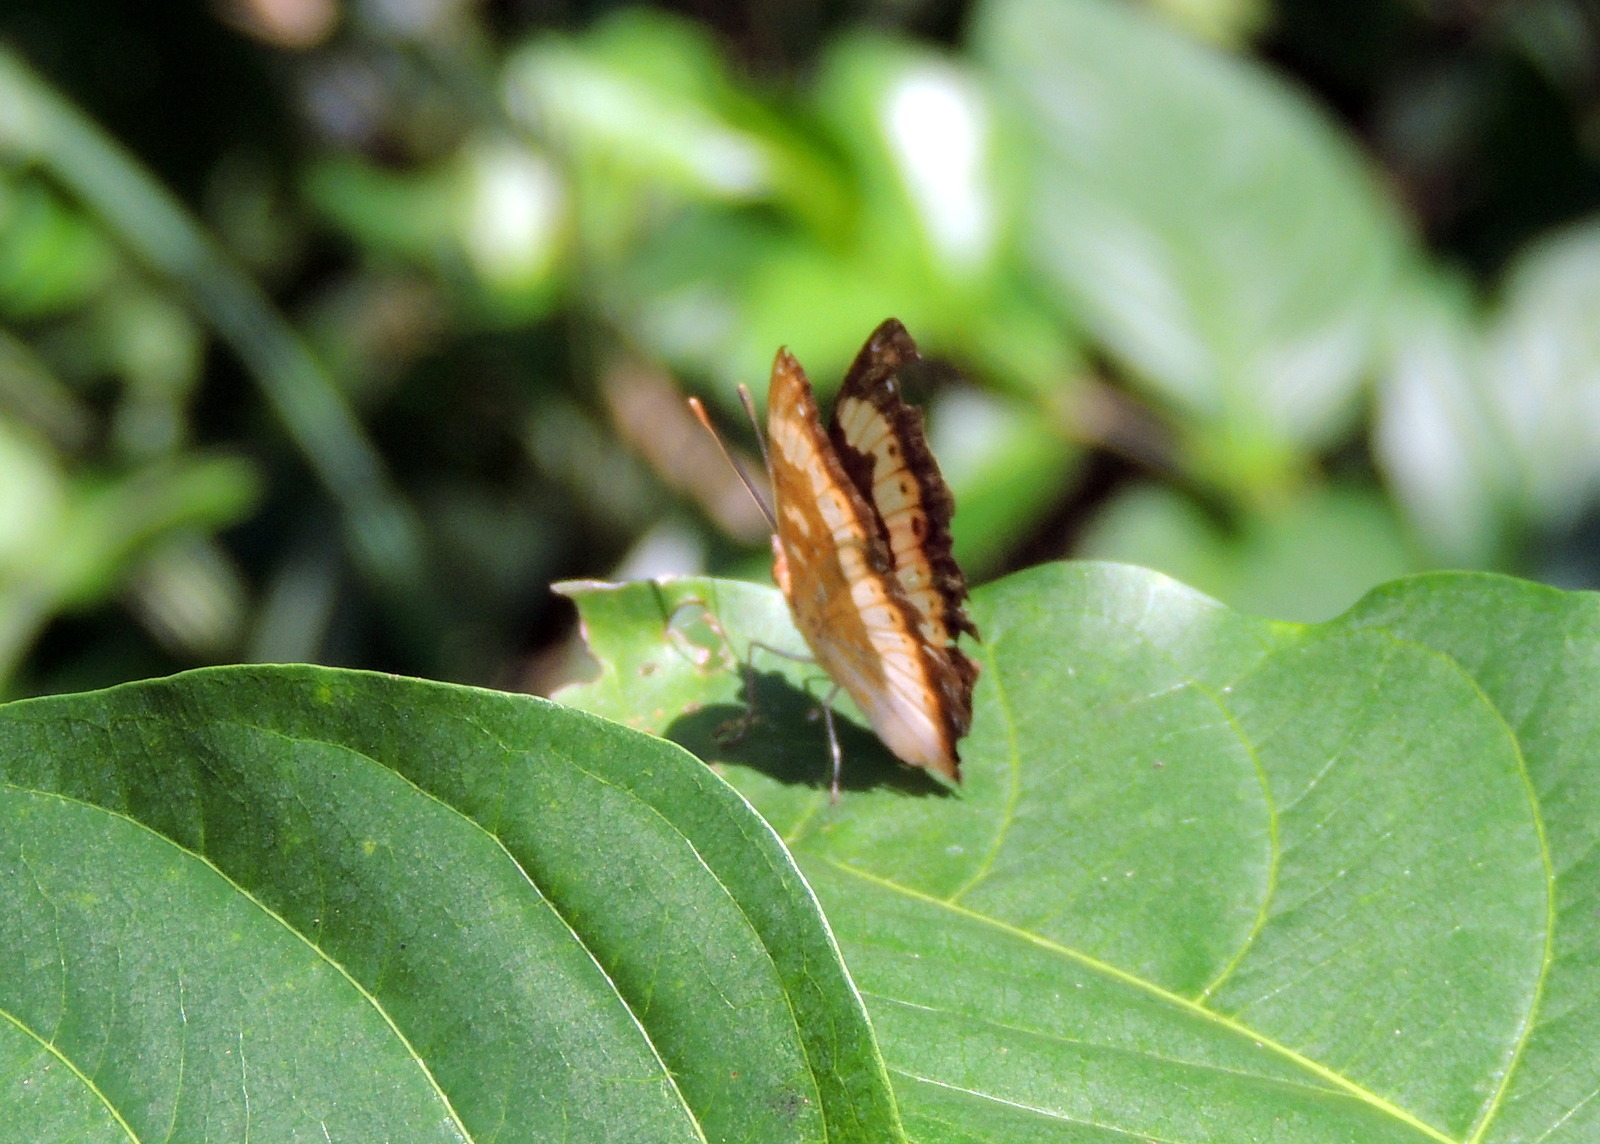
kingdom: Animalia
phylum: Arthropoda
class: Insecta
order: Lepidoptera
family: Nymphalidae
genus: Precis
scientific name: Precis pelarga
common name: Fashion commodore
